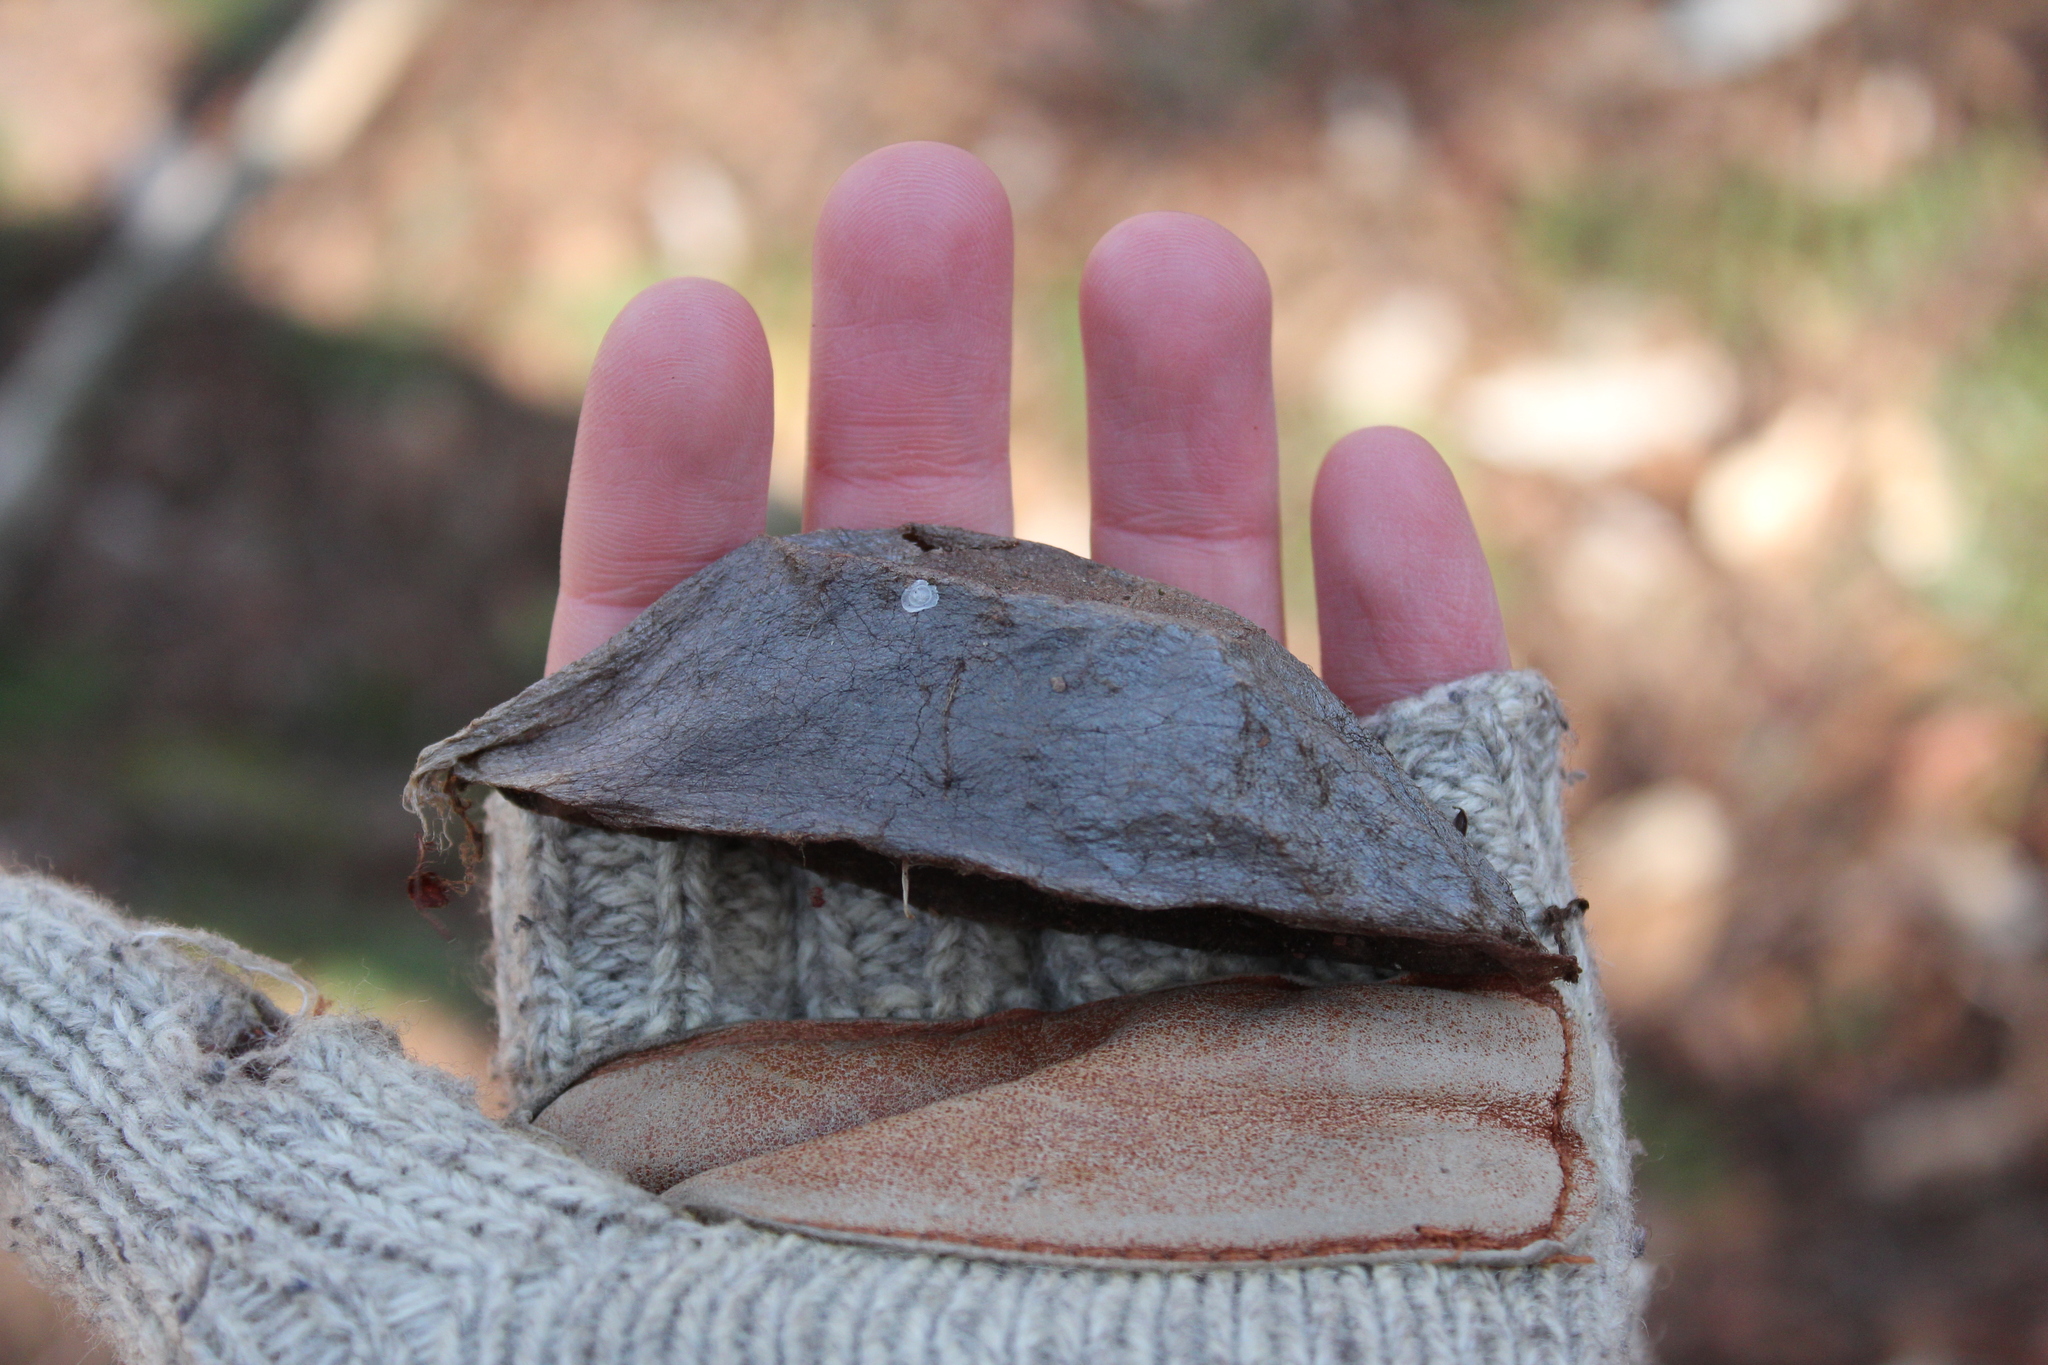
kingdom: Animalia
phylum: Arthropoda
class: Insecta
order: Lepidoptera
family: Saturniidae
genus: Hyalophora
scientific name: Hyalophora cecropia
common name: Cecropia silkmoth
